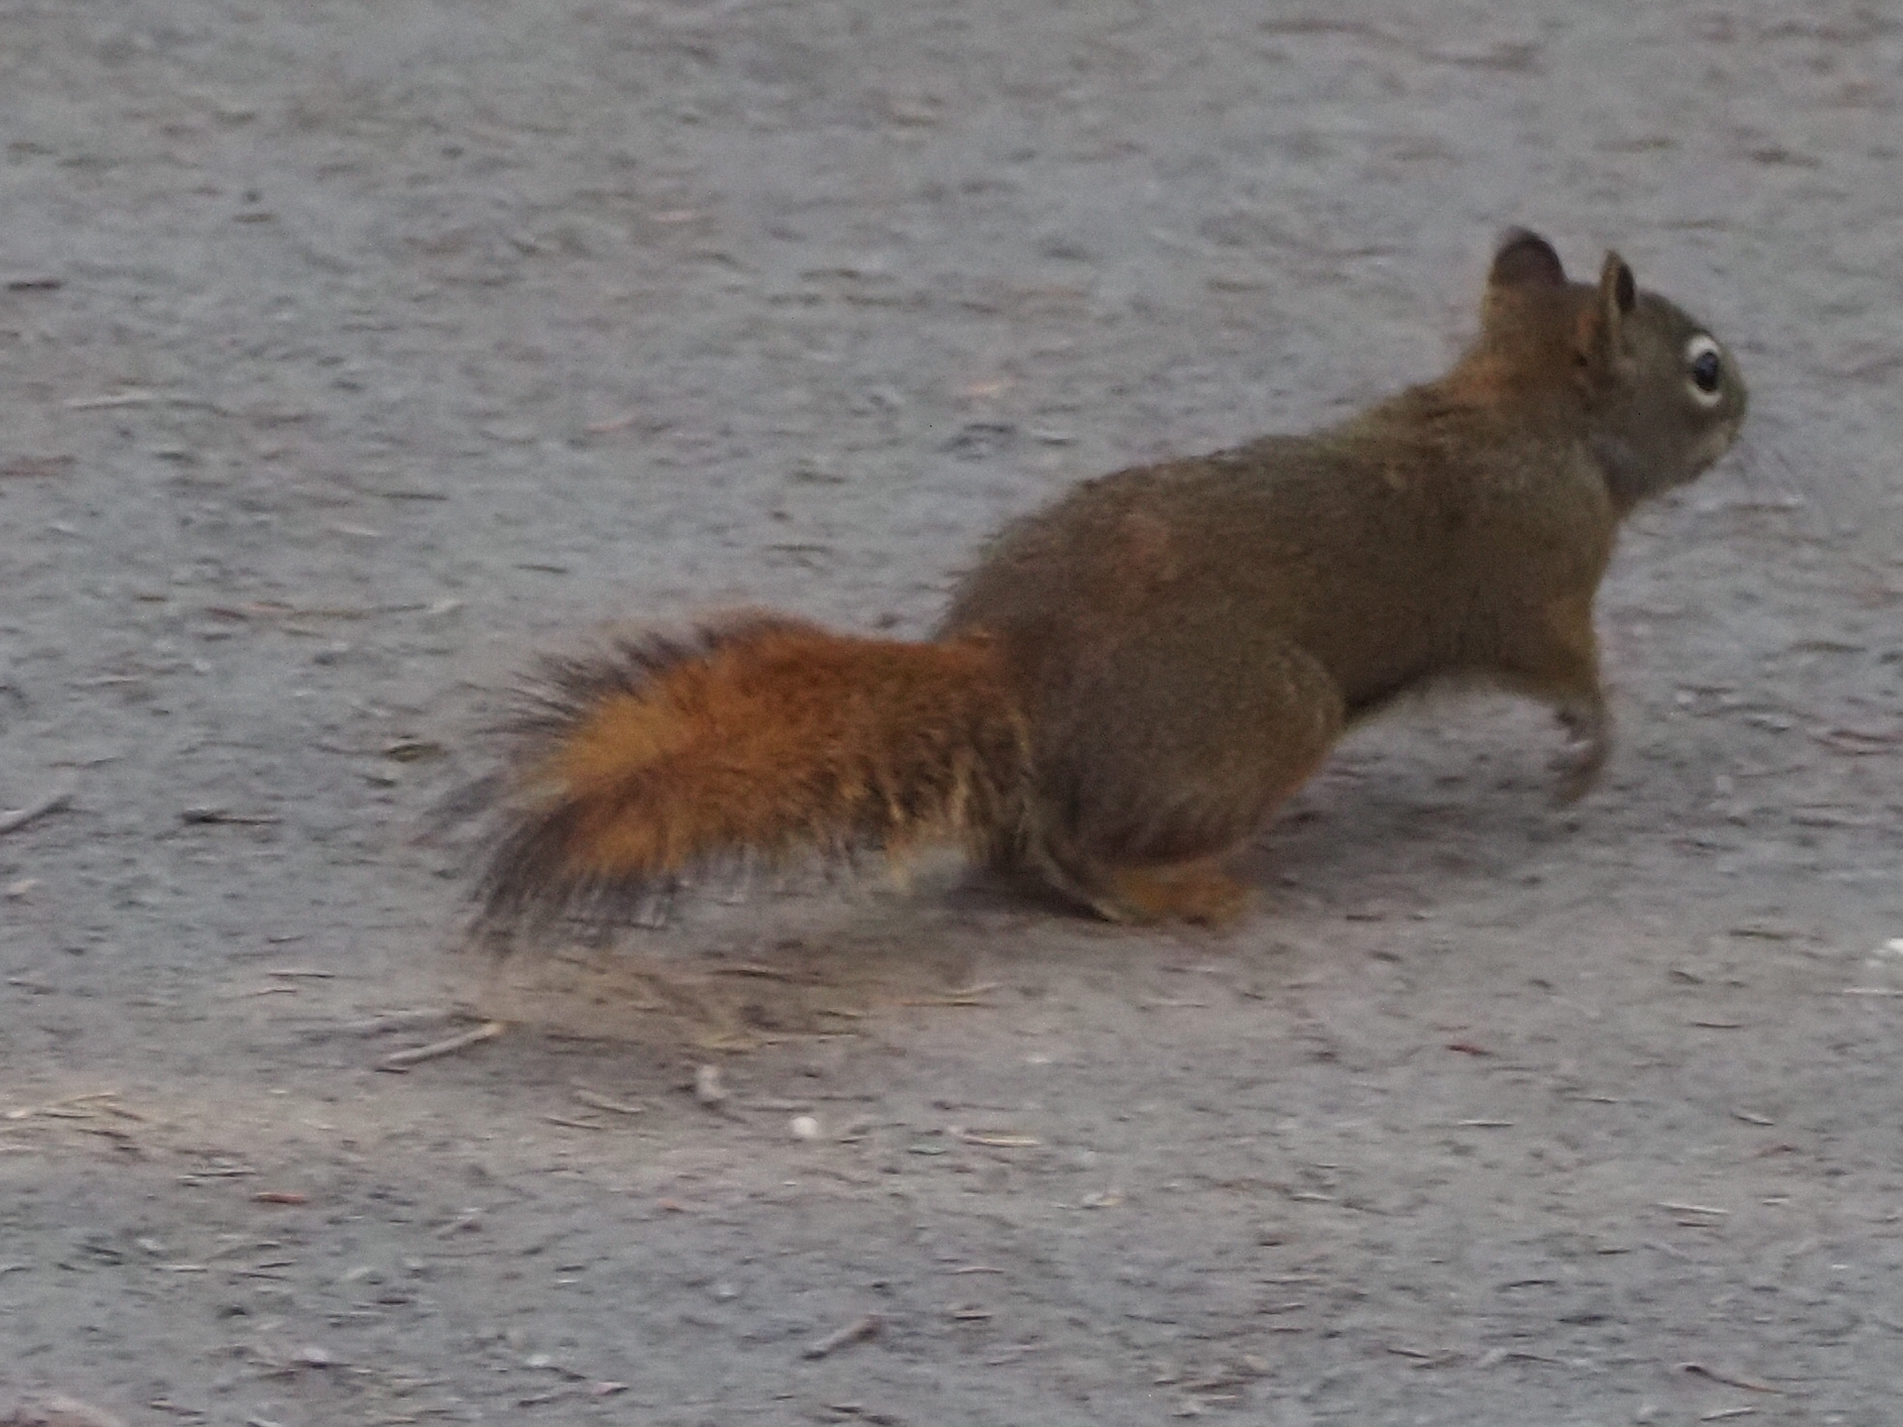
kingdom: Animalia
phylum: Chordata
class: Mammalia
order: Rodentia
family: Sciuridae
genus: Tamiasciurus
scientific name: Tamiasciurus hudsonicus
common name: Red squirrel
